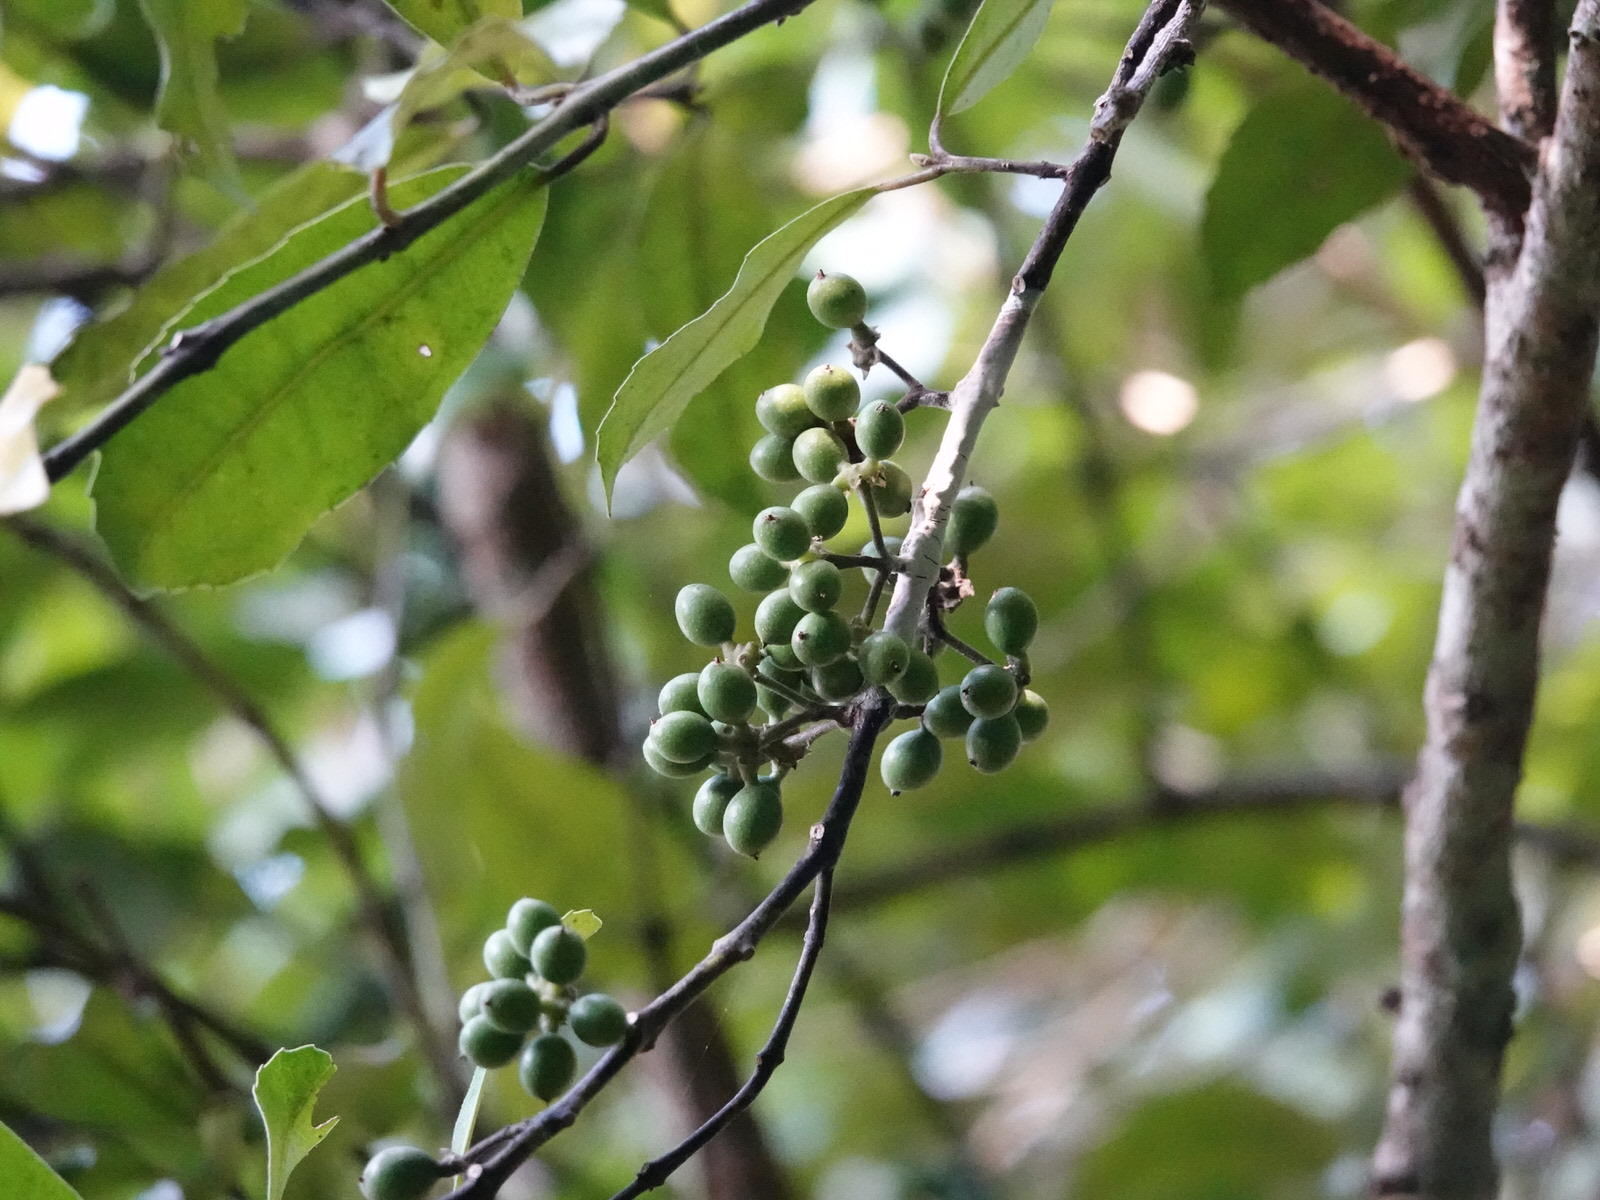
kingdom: Plantae
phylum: Tracheophyta
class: Magnoliopsida
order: Laurales
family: Monimiaceae
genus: Hedycarya
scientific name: Hedycarya arborea
